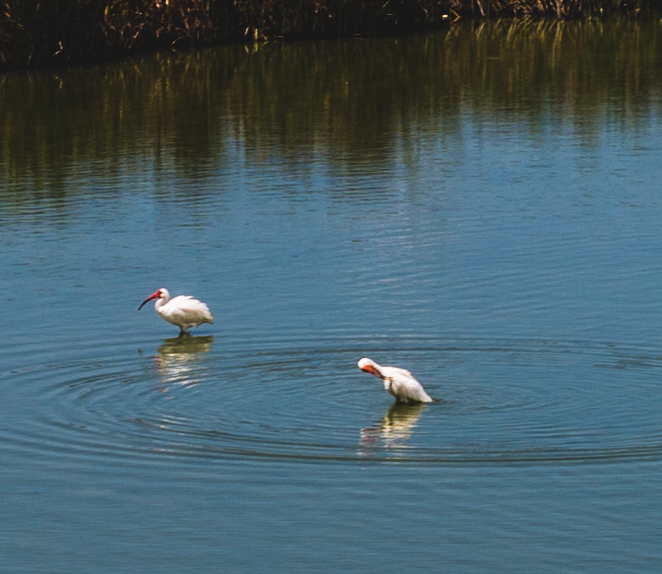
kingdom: Animalia
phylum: Chordata
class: Aves
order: Pelecaniformes
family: Threskiornithidae
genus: Eudocimus
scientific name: Eudocimus albus
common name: White ibis
